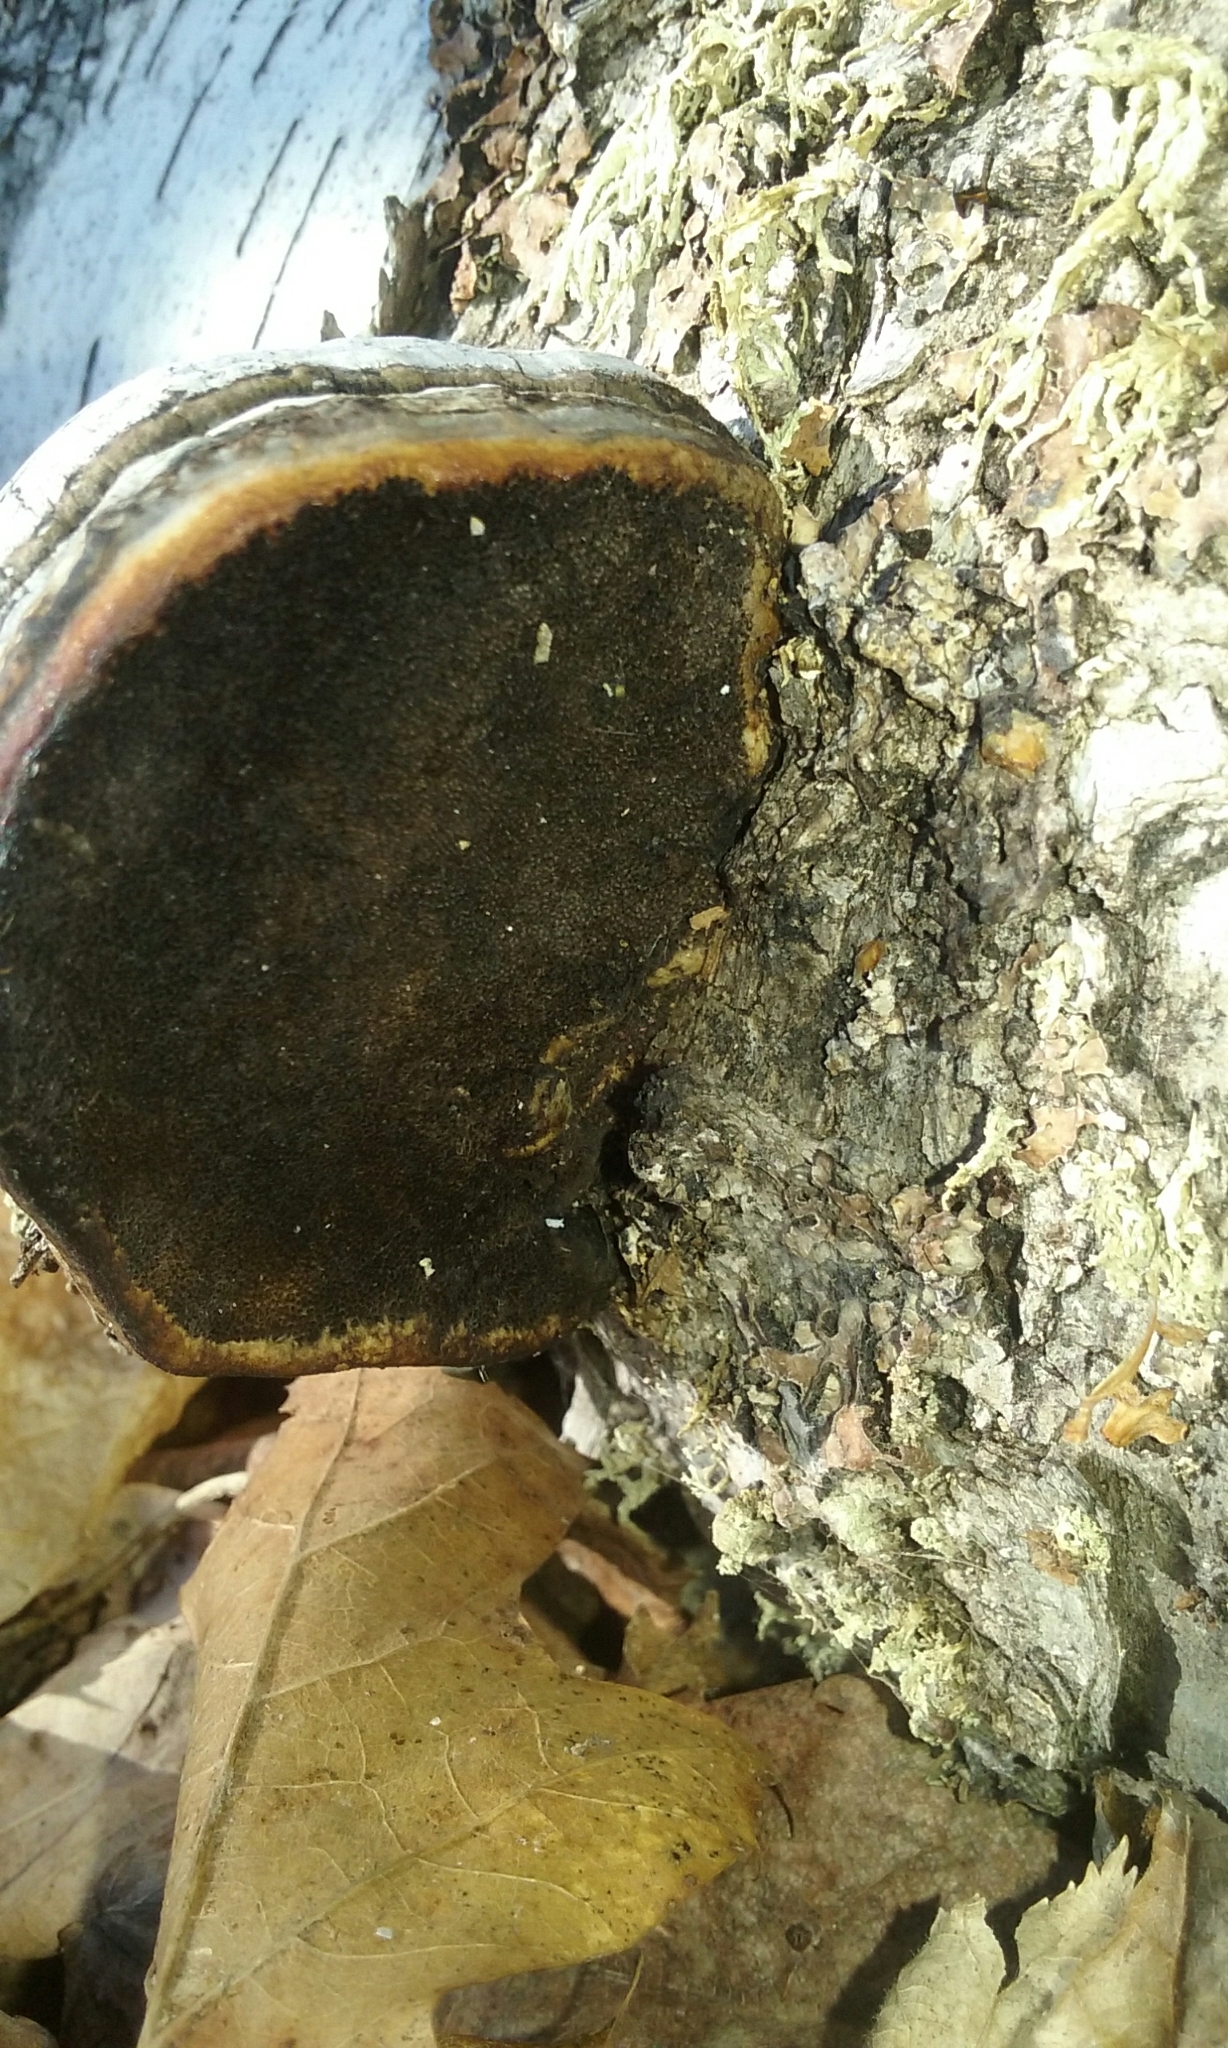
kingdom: Fungi
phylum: Basidiomycota
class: Agaricomycetes
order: Polyporales
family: Polyporaceae
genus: Fomes
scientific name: Fomes fomentarius
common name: Hoof fungus
